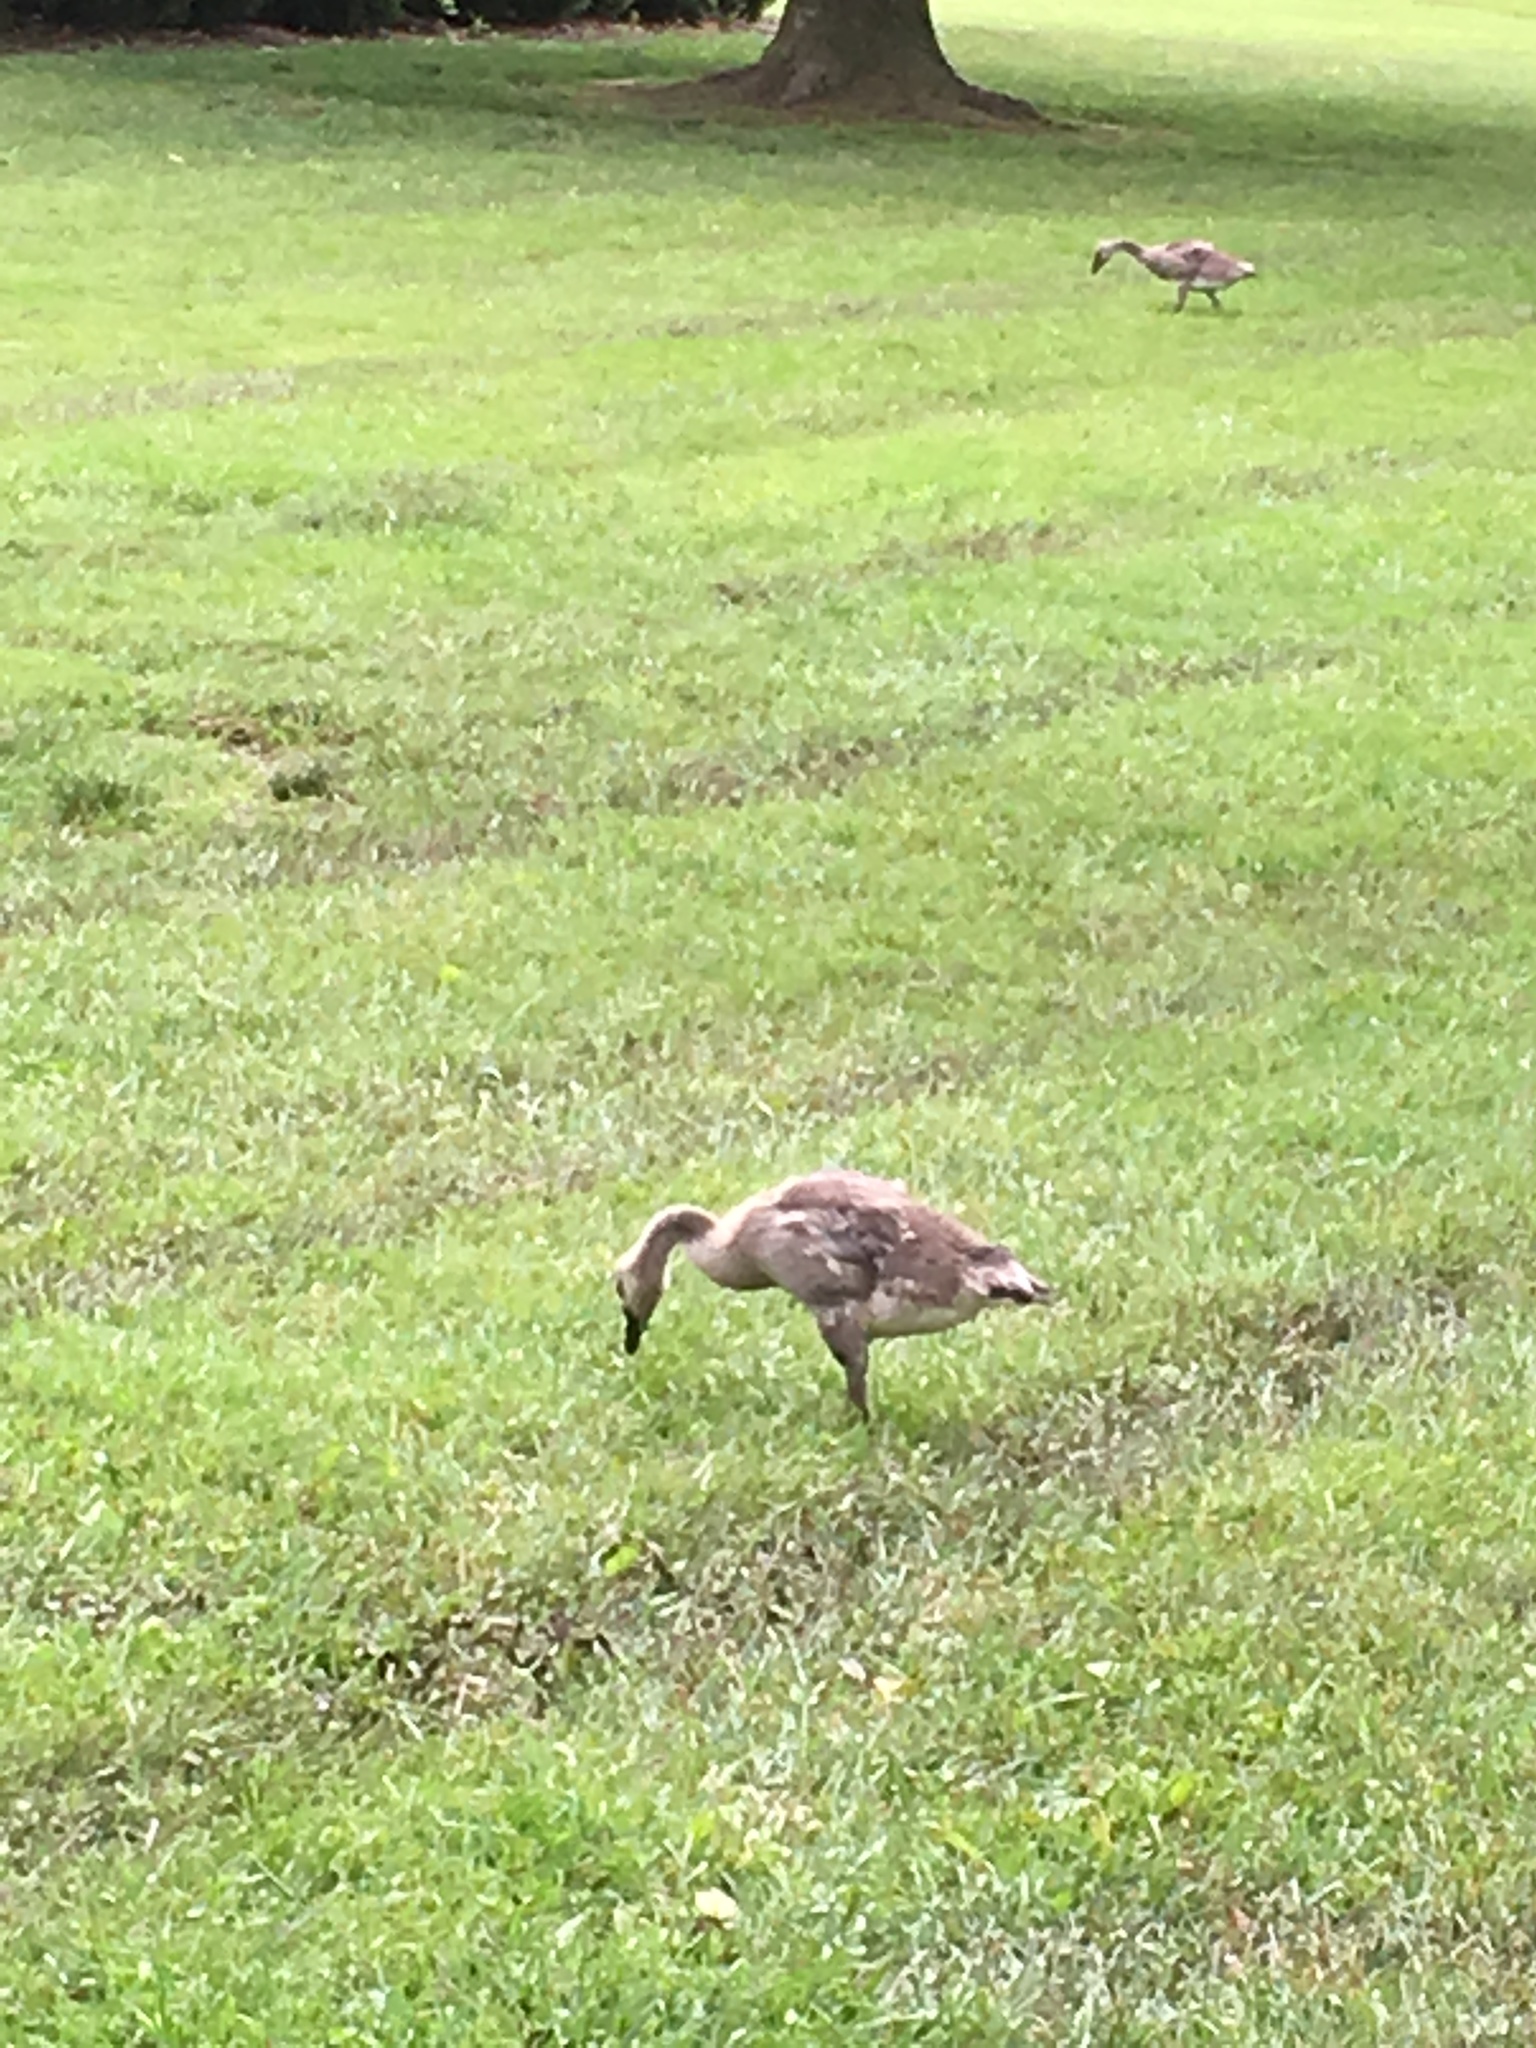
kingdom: Animalia
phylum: Chordata
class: Aves
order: Anseriformes
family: Anatidae
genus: Branta
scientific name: Branta canadensis
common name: Canada goose
